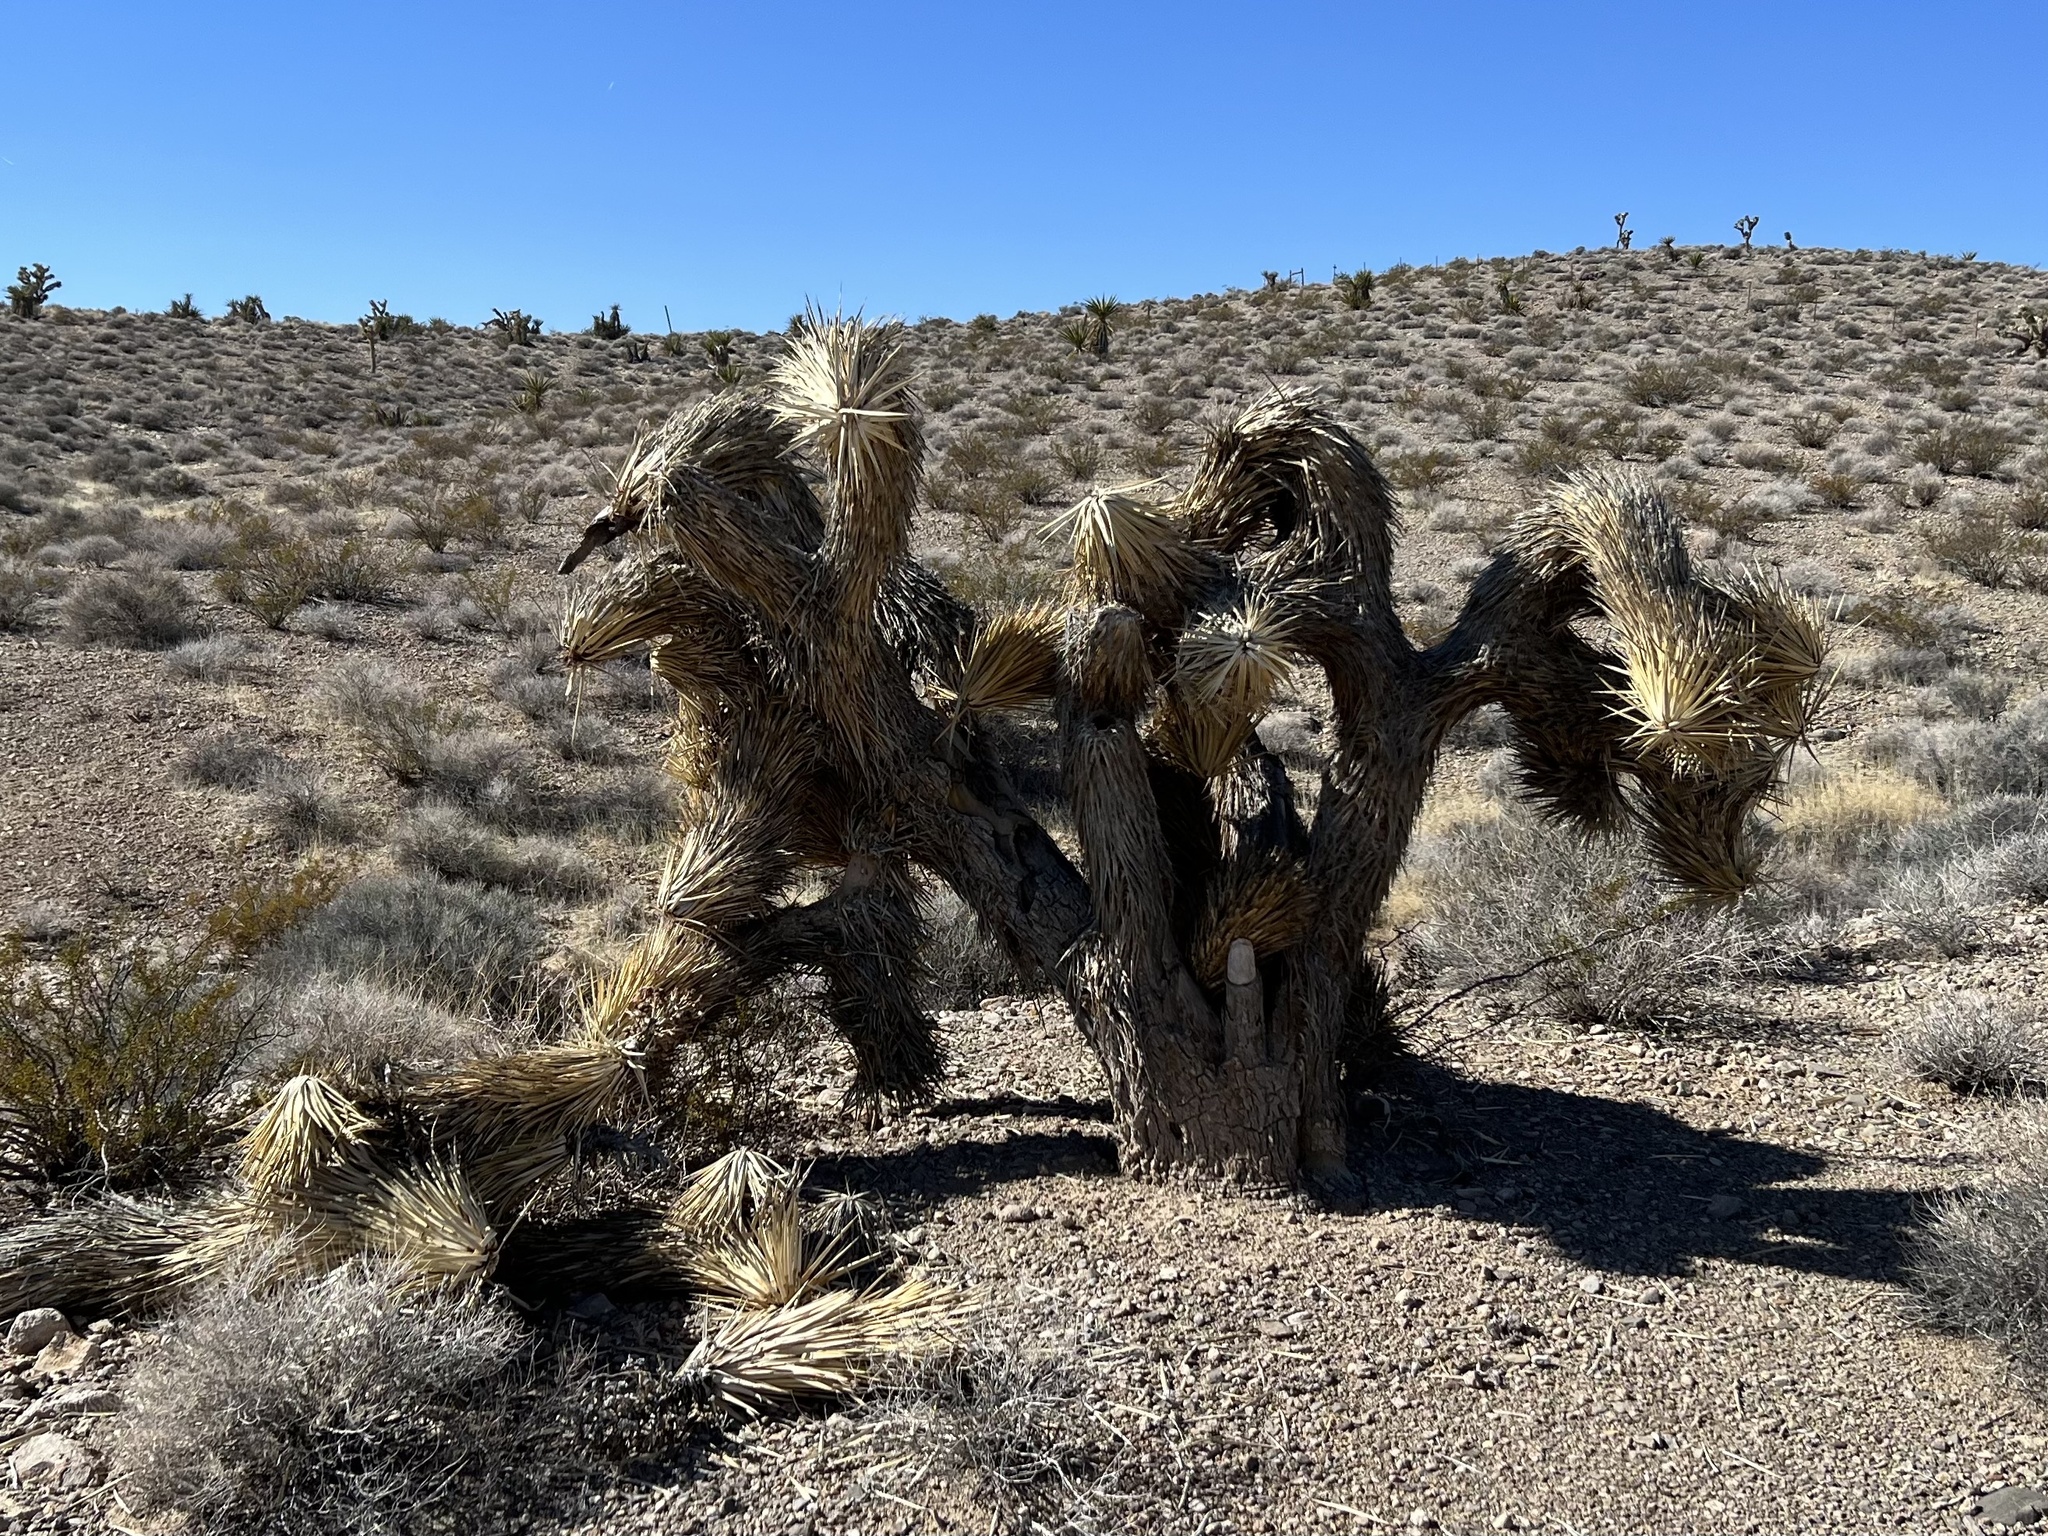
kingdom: Plantae
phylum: Tracheophyta
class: Liliopsida
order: Asparagales
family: Asparagaceae
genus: Yucca
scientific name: Yucca brevifolia
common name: Joshua tree
